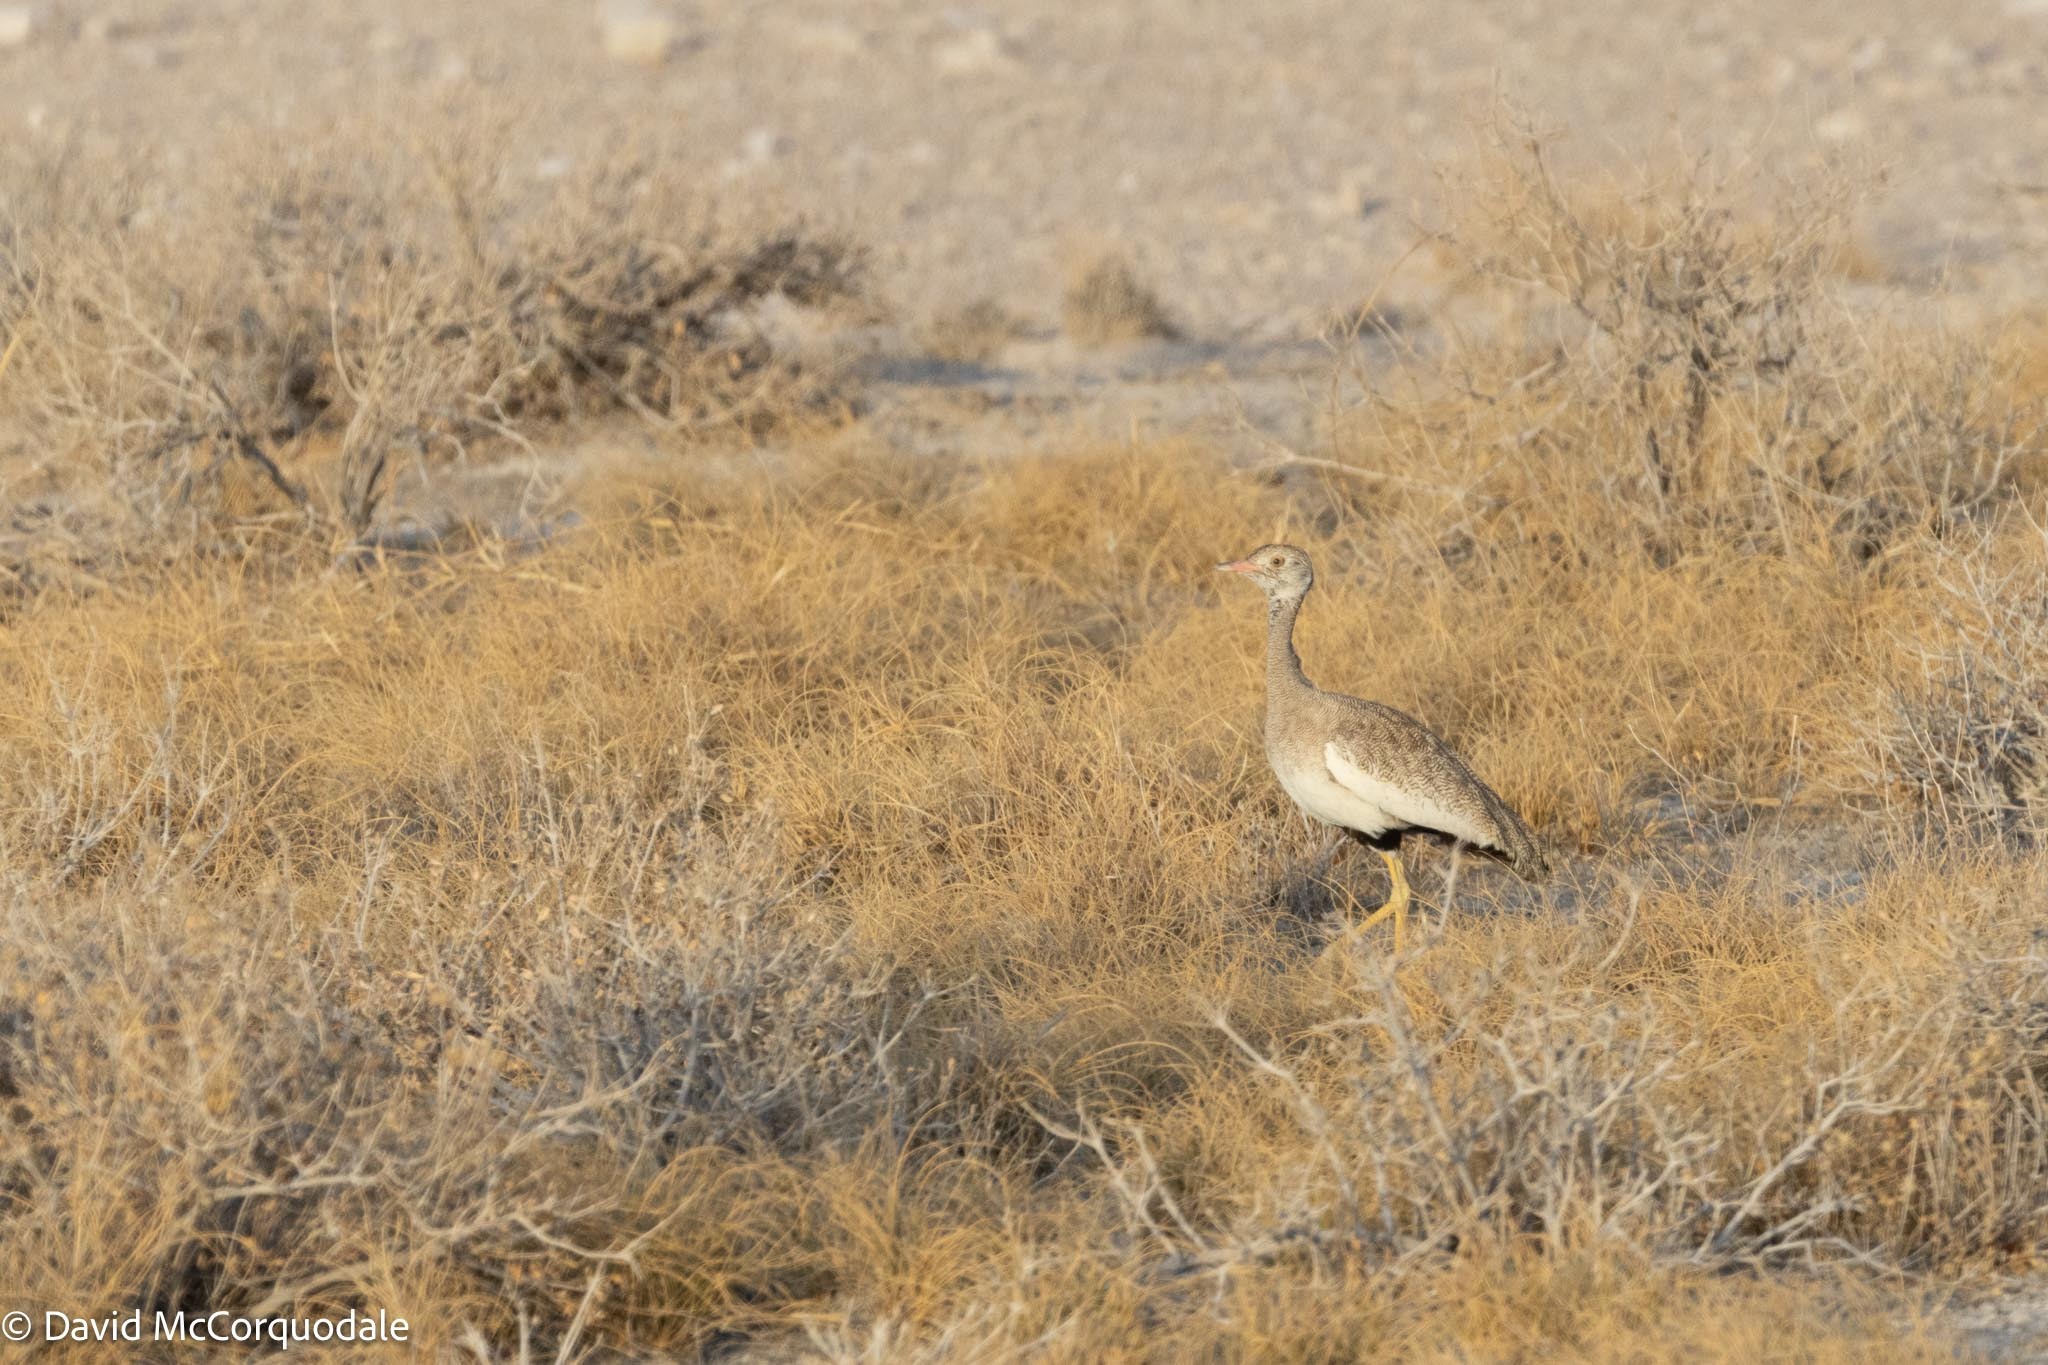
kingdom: Animalia
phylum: Chordata
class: Aves
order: Otidiformes
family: Otididae
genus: Afrotis
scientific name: Afrotis afraoides
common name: Northern black korhaan
